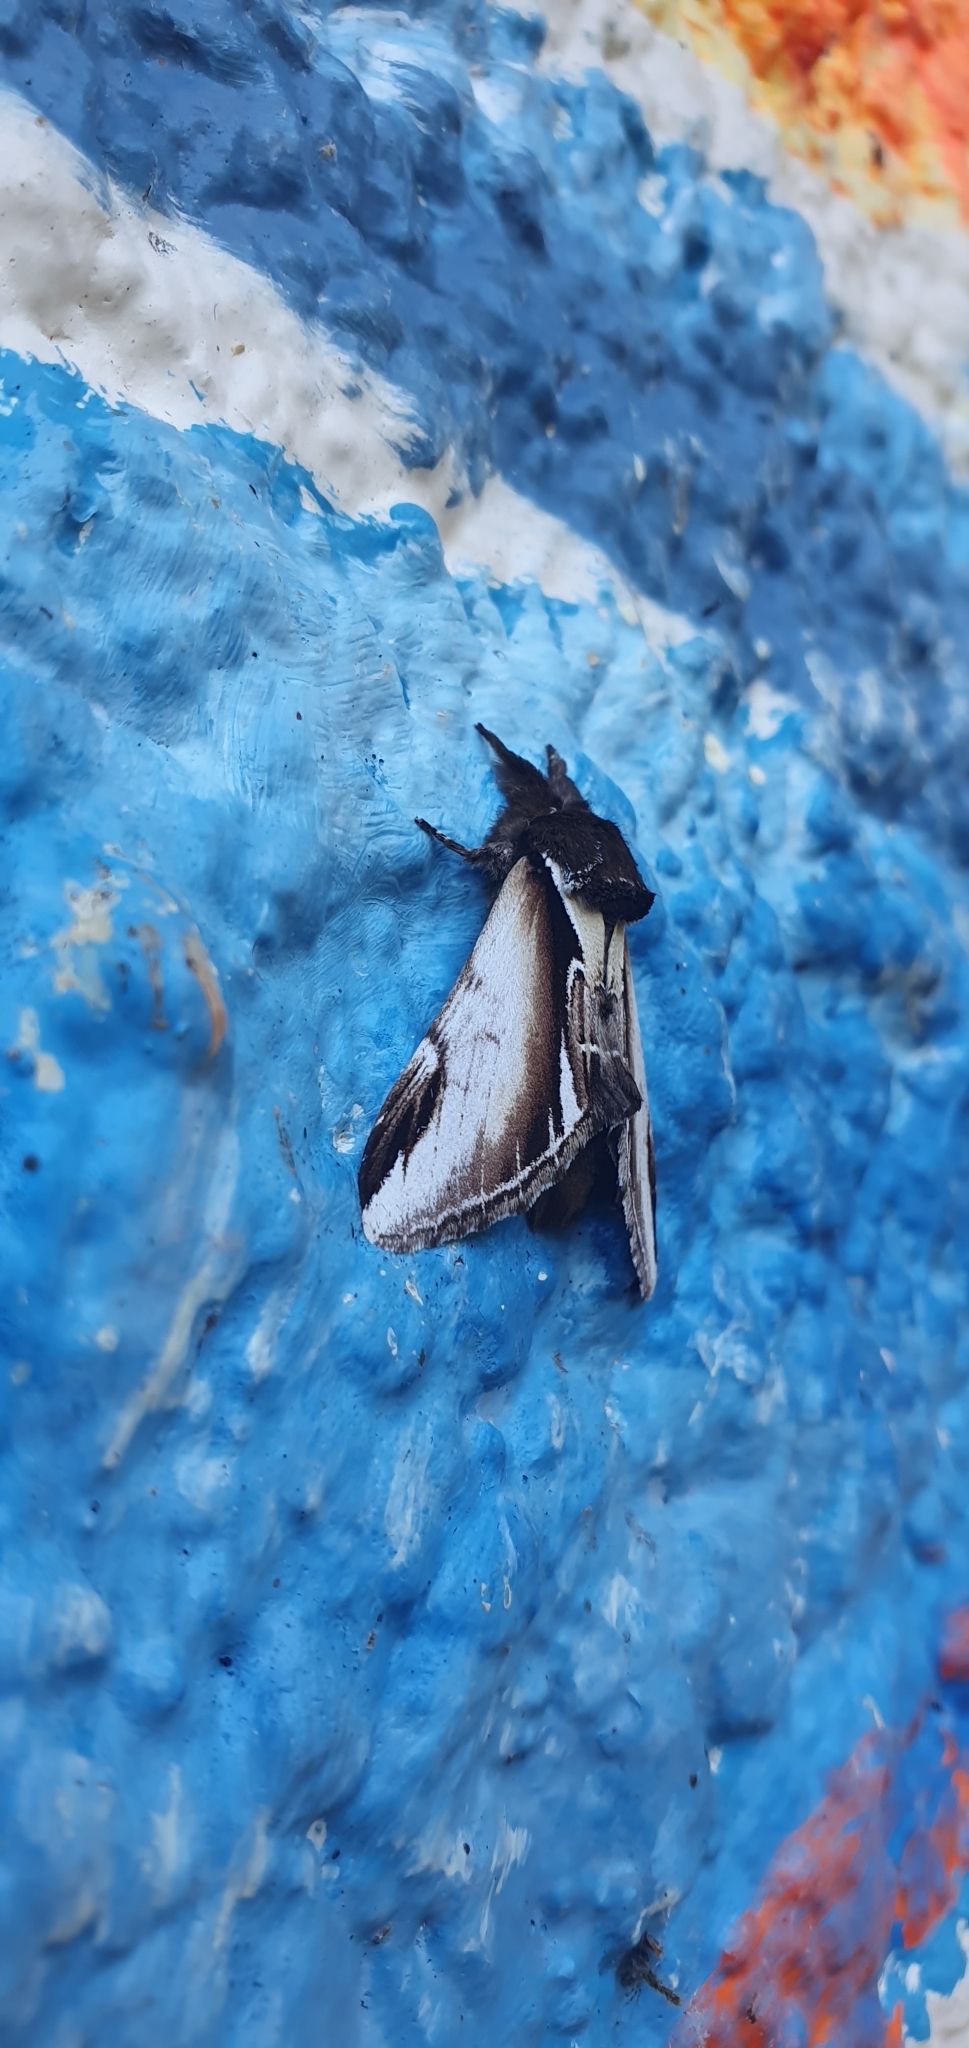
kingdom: Animalia
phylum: Arthropoda
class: Insecta
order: Lepidoptera
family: Notodontidae
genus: Pheosia
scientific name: Pheosia gnoma
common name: Lesser swallow prominent
